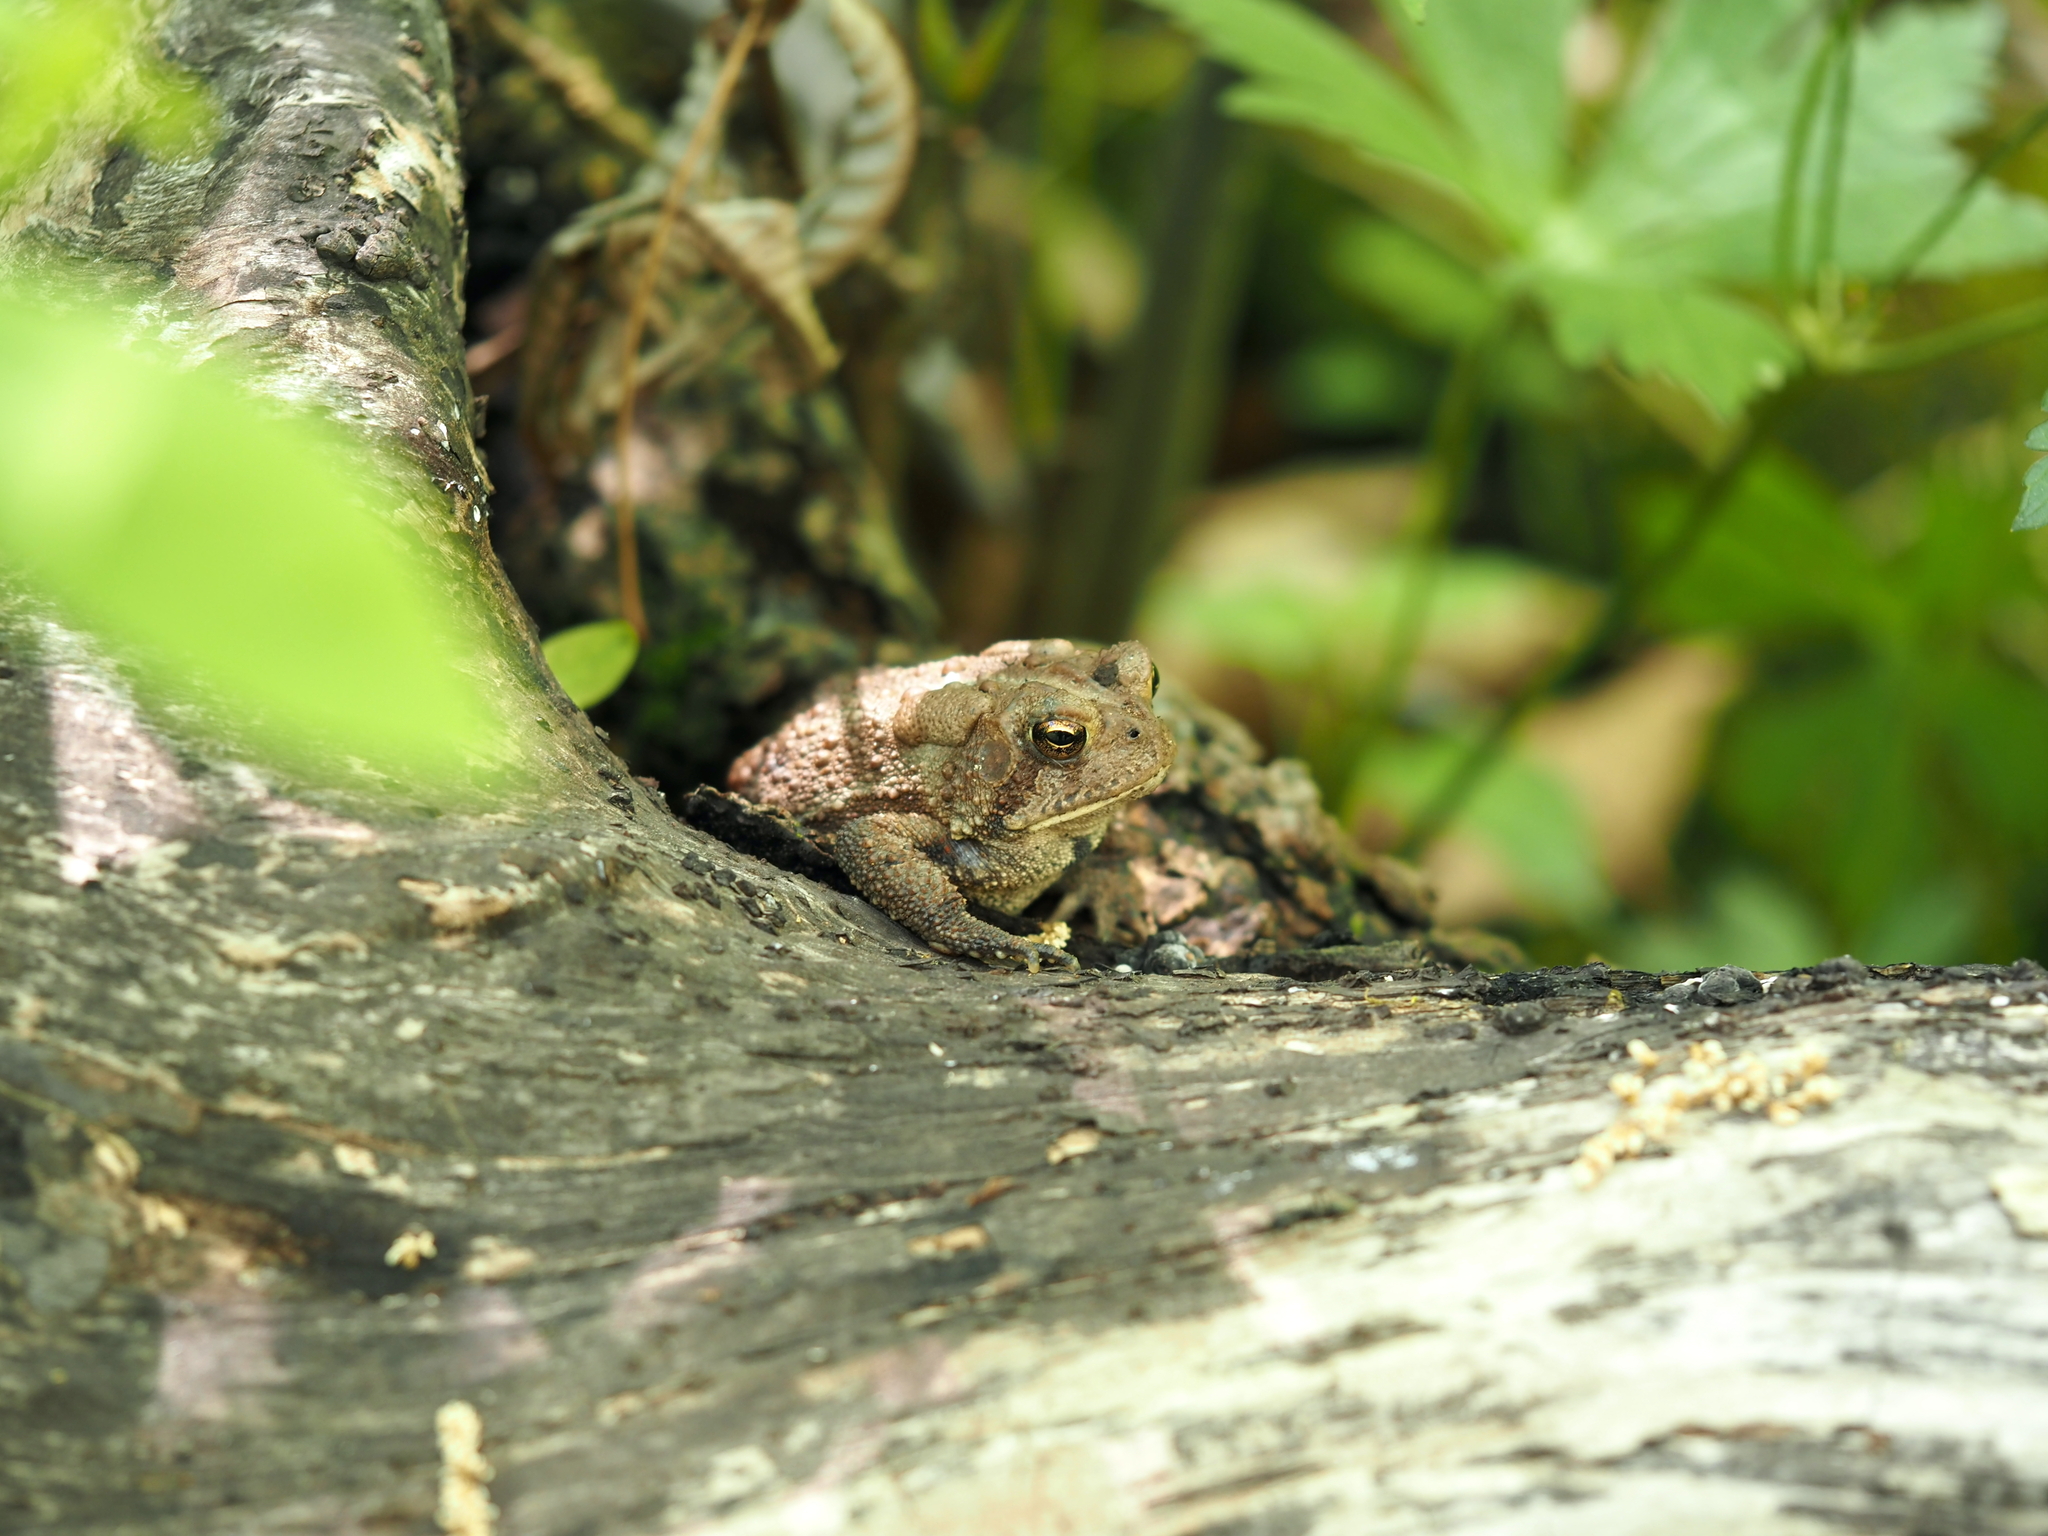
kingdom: Animalia
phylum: Chordata
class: Amphibia
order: Anura
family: Bufonidae
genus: Anaxyrus
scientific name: Anaxyrus americanus
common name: American toad
